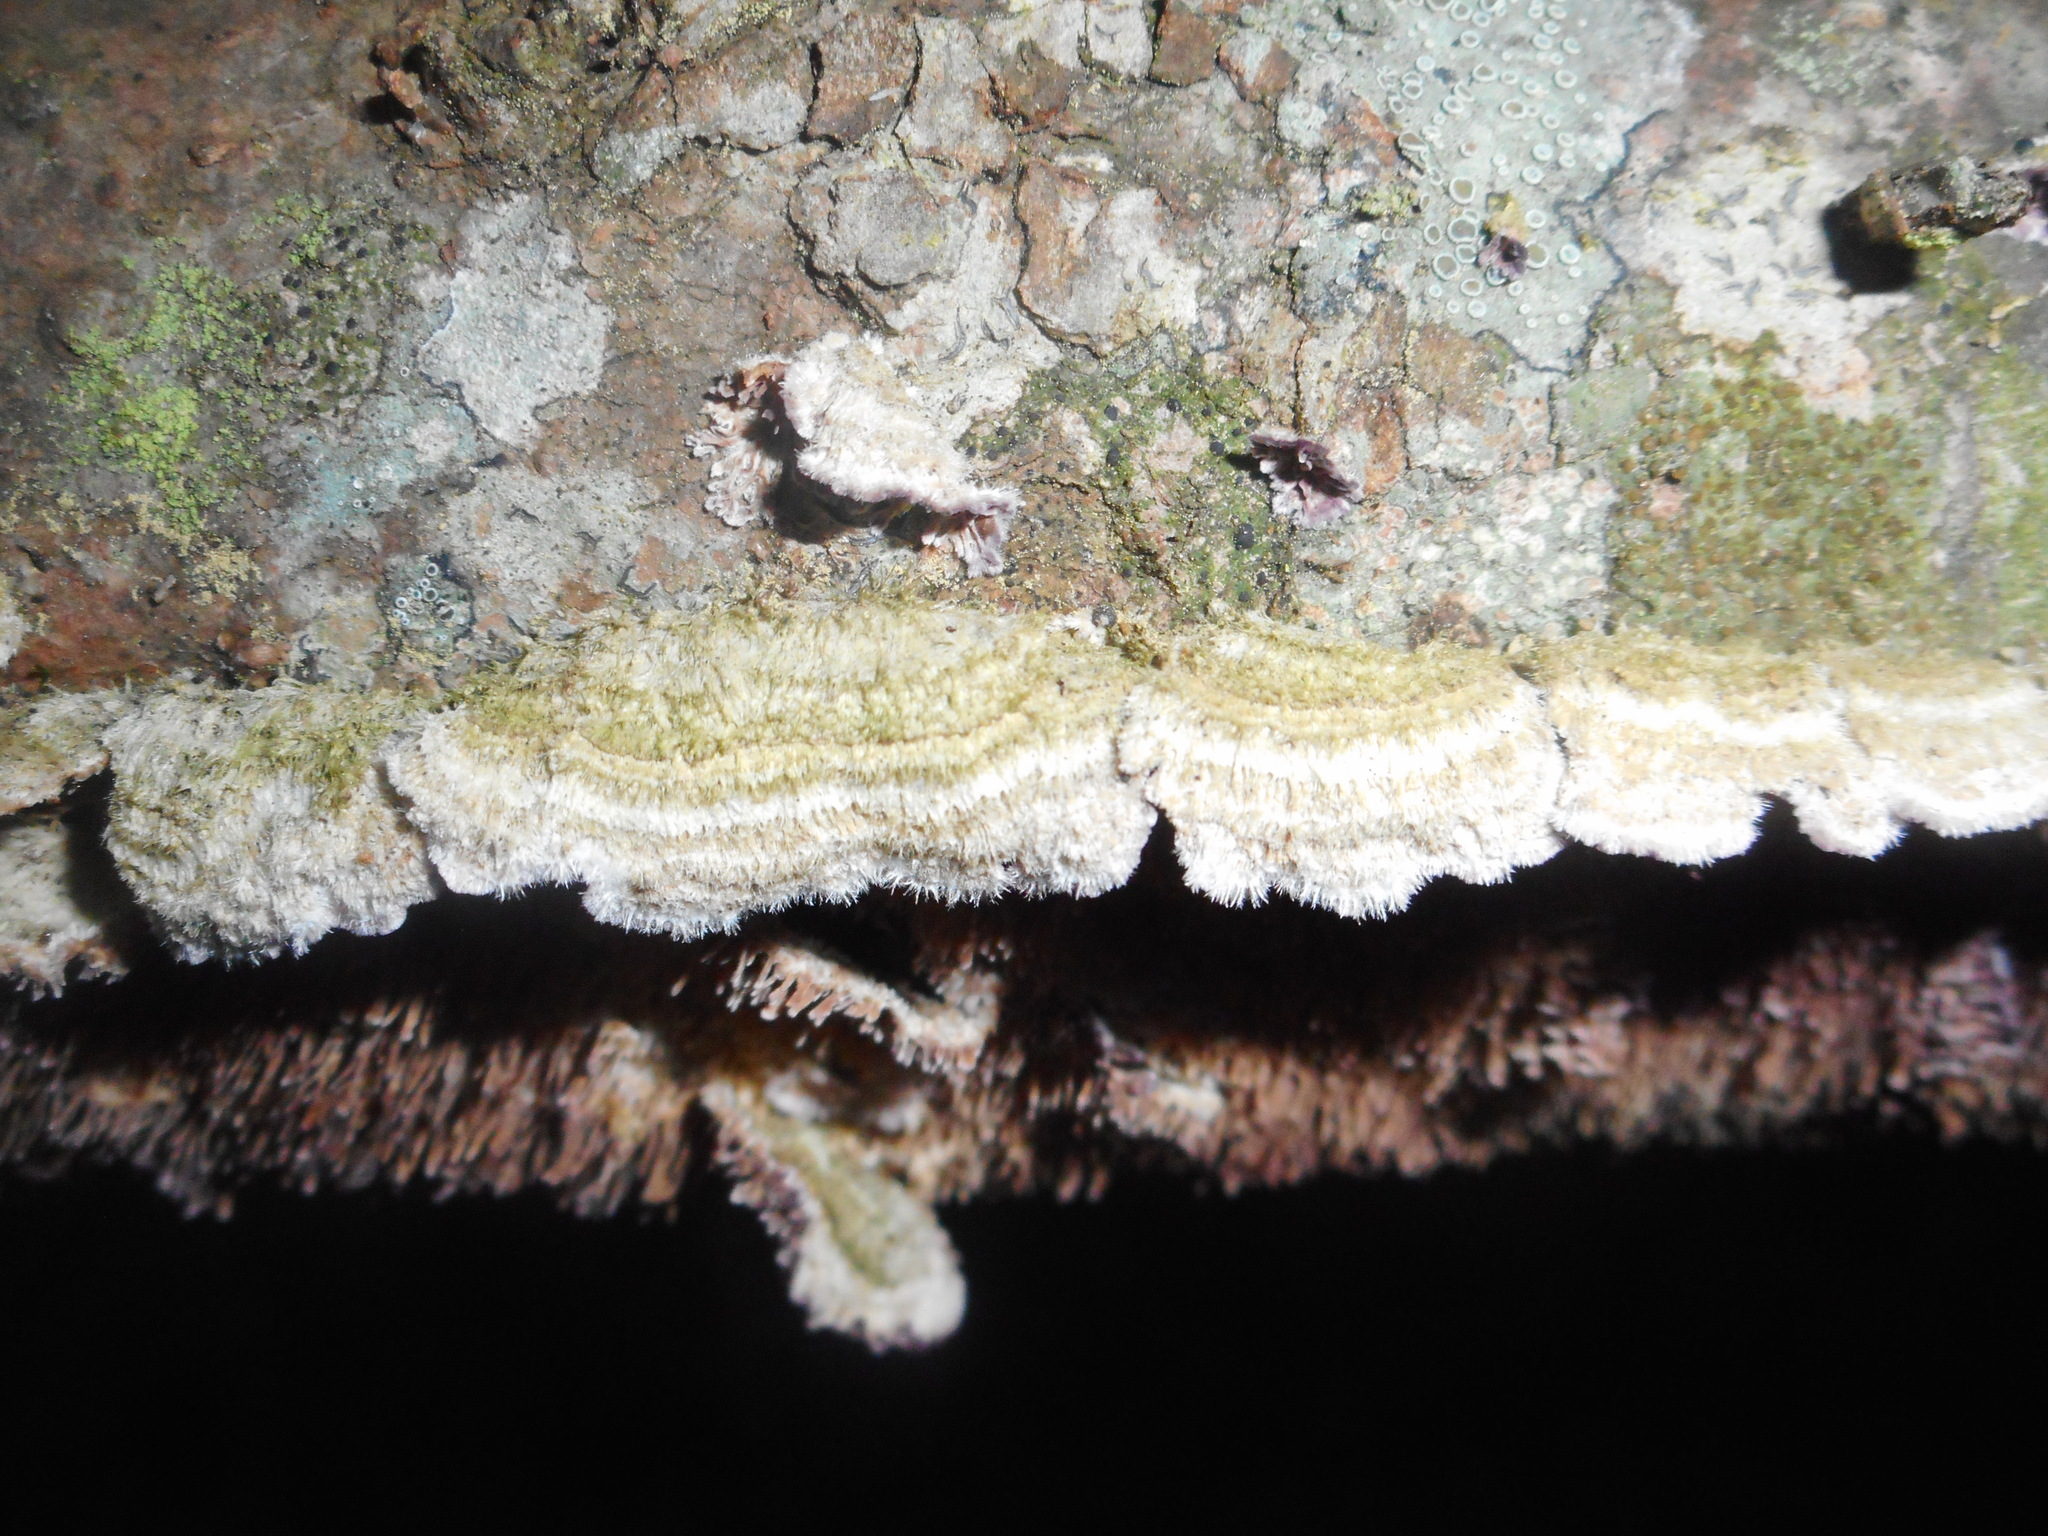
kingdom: Fungi
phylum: Basidiomycota
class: Agaricomycetes
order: Hymenochaetales
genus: Trichaptum
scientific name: Trichaptum fuscoviolaceum
